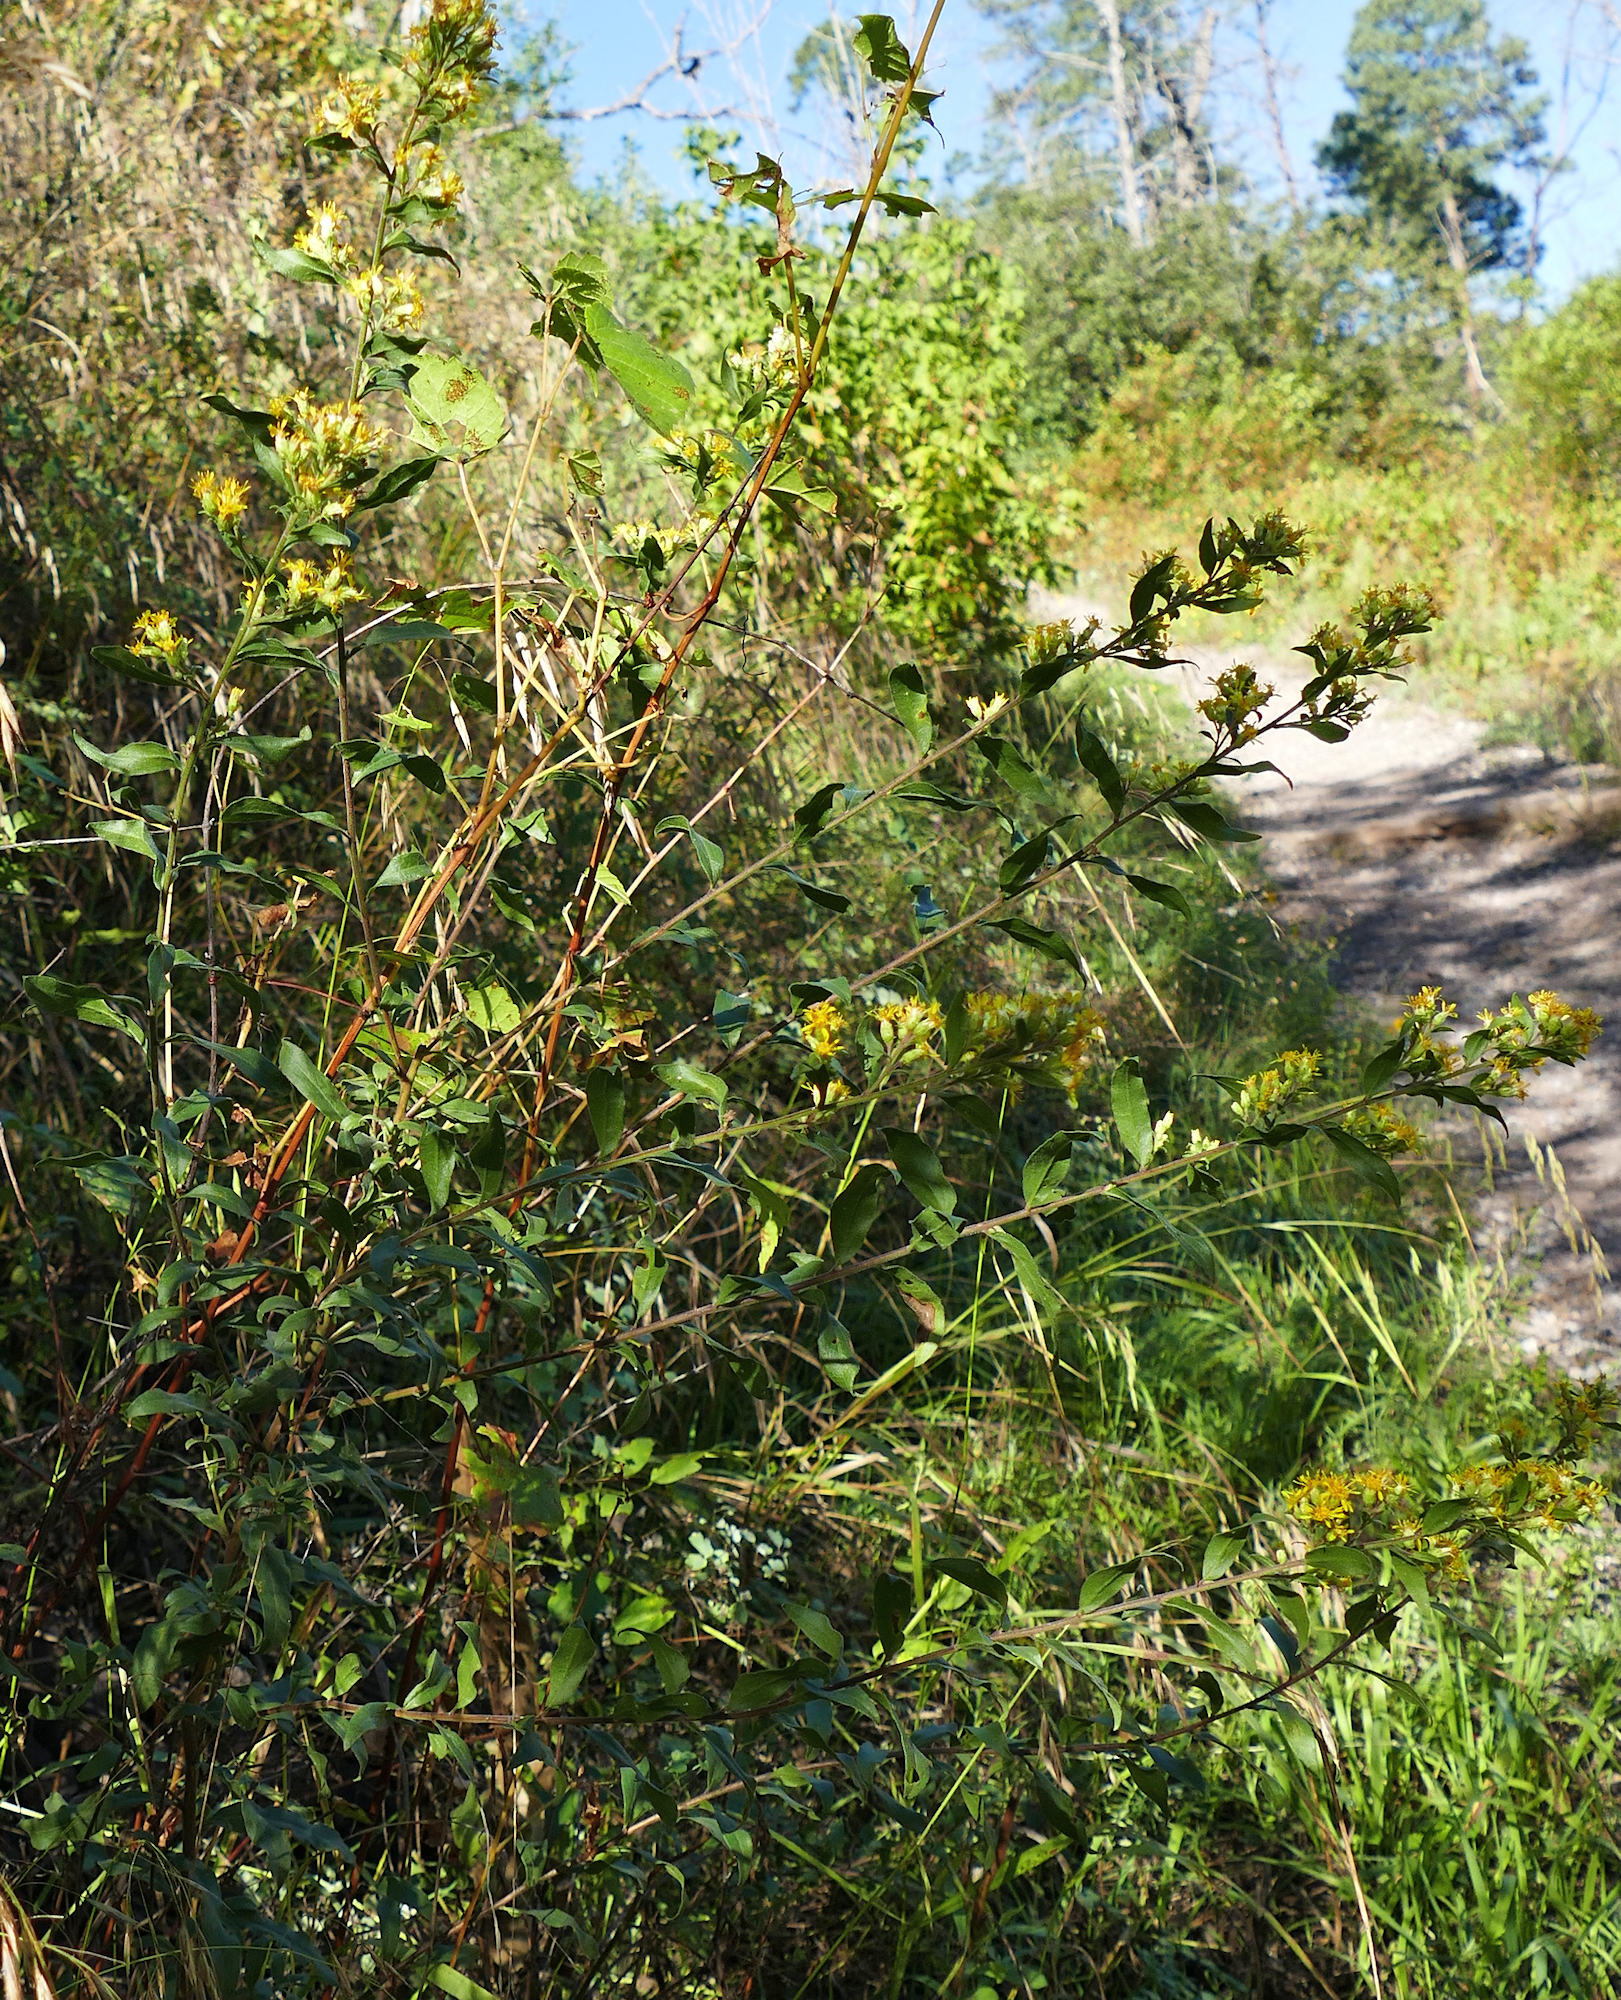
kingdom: Plantae
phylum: Tracheophyta
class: Magnoliopsida
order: Asterales
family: Asteraceae
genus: Solidago
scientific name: Solidago wrightii
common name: Wright's goldenrod
